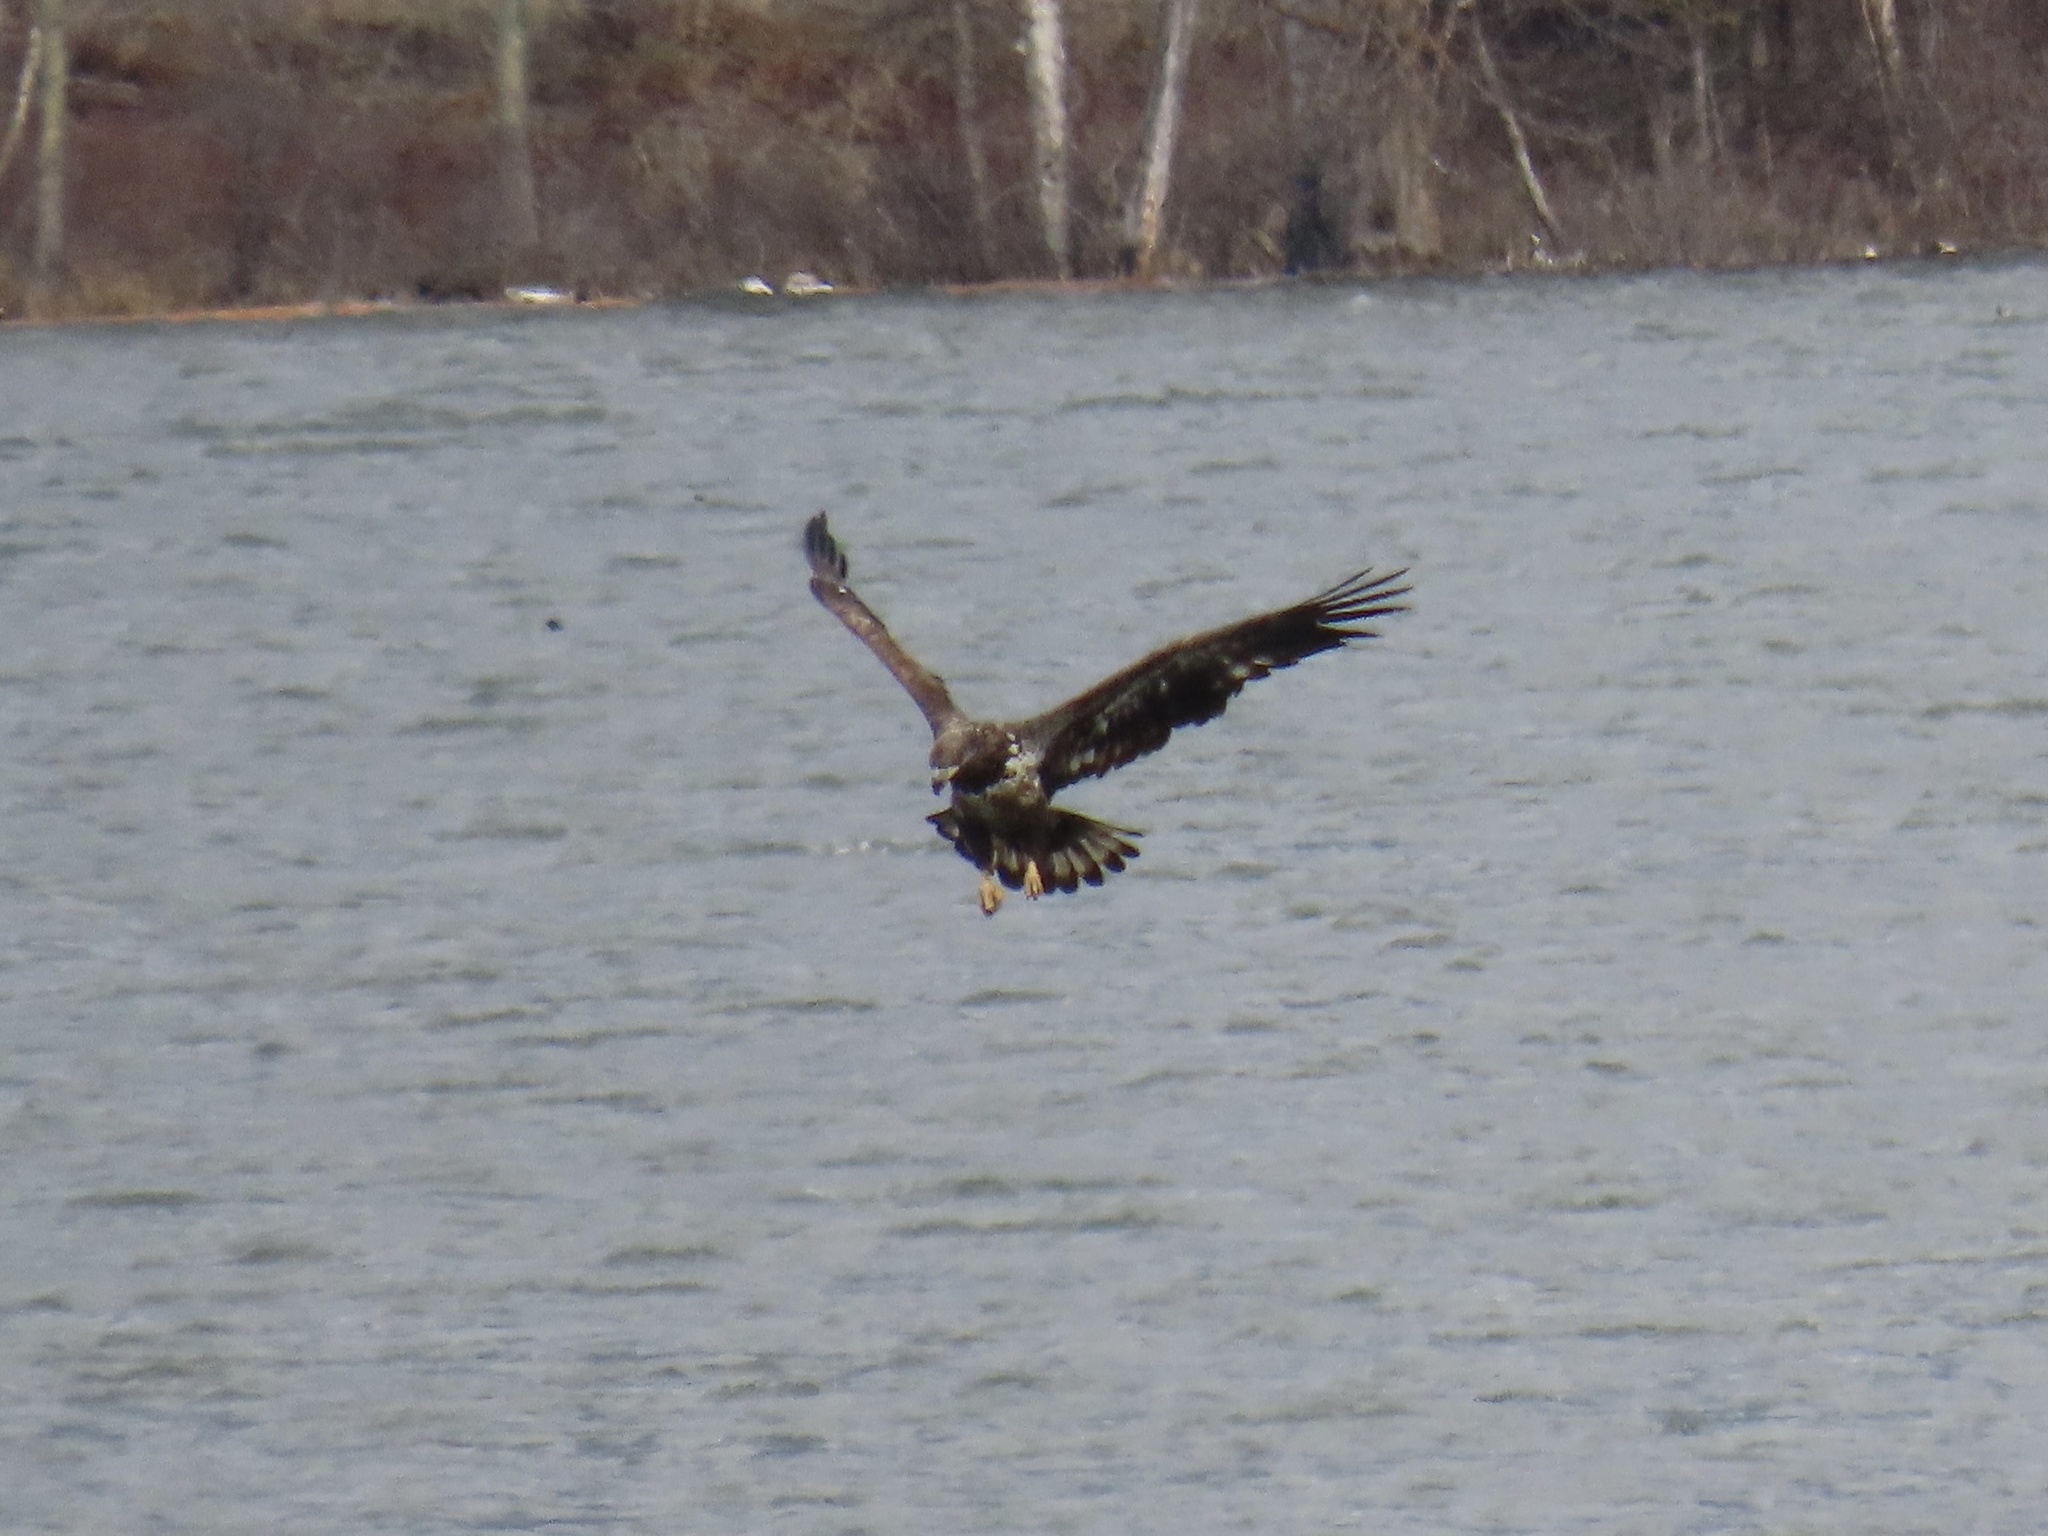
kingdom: Animalia
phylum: Chordata
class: Aves
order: Accipitriformes
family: Accipitridae
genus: Haliaeetus
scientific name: Haliaeetus leucocephalus
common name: Bald eagle
